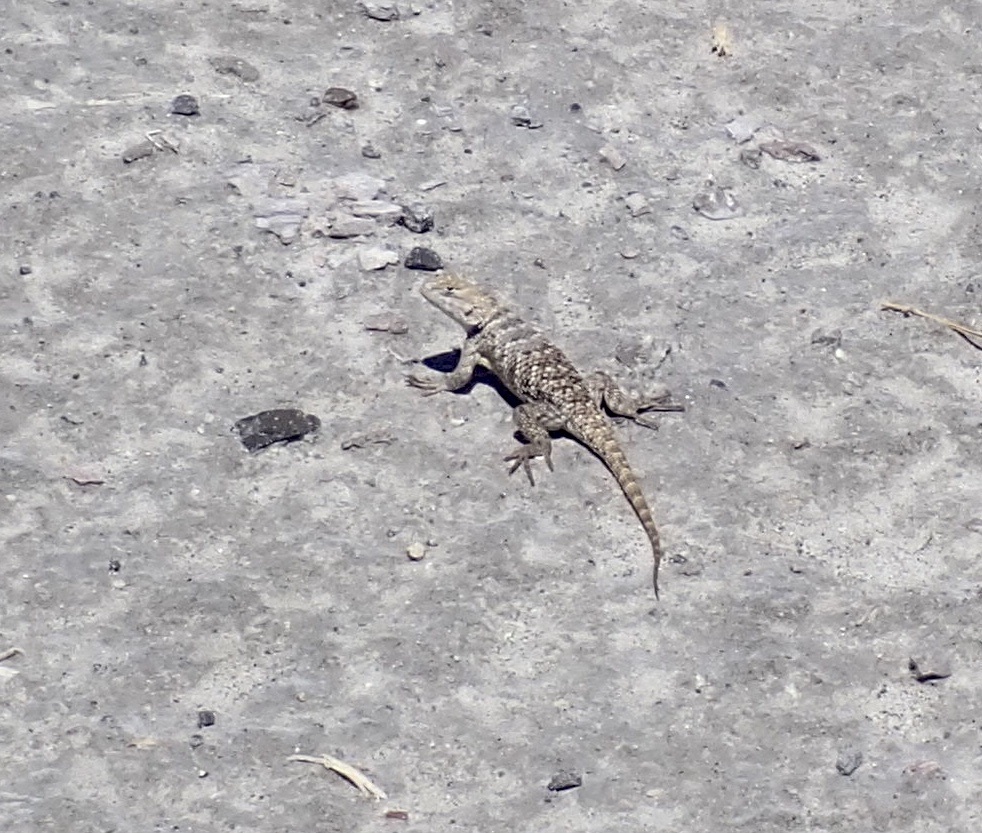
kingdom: Animalia
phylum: Chordata
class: Squamata
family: Phrynosomatidae
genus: Sceloporus
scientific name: Sceloporus uniformis
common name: Yellow-backed spiny lizard
